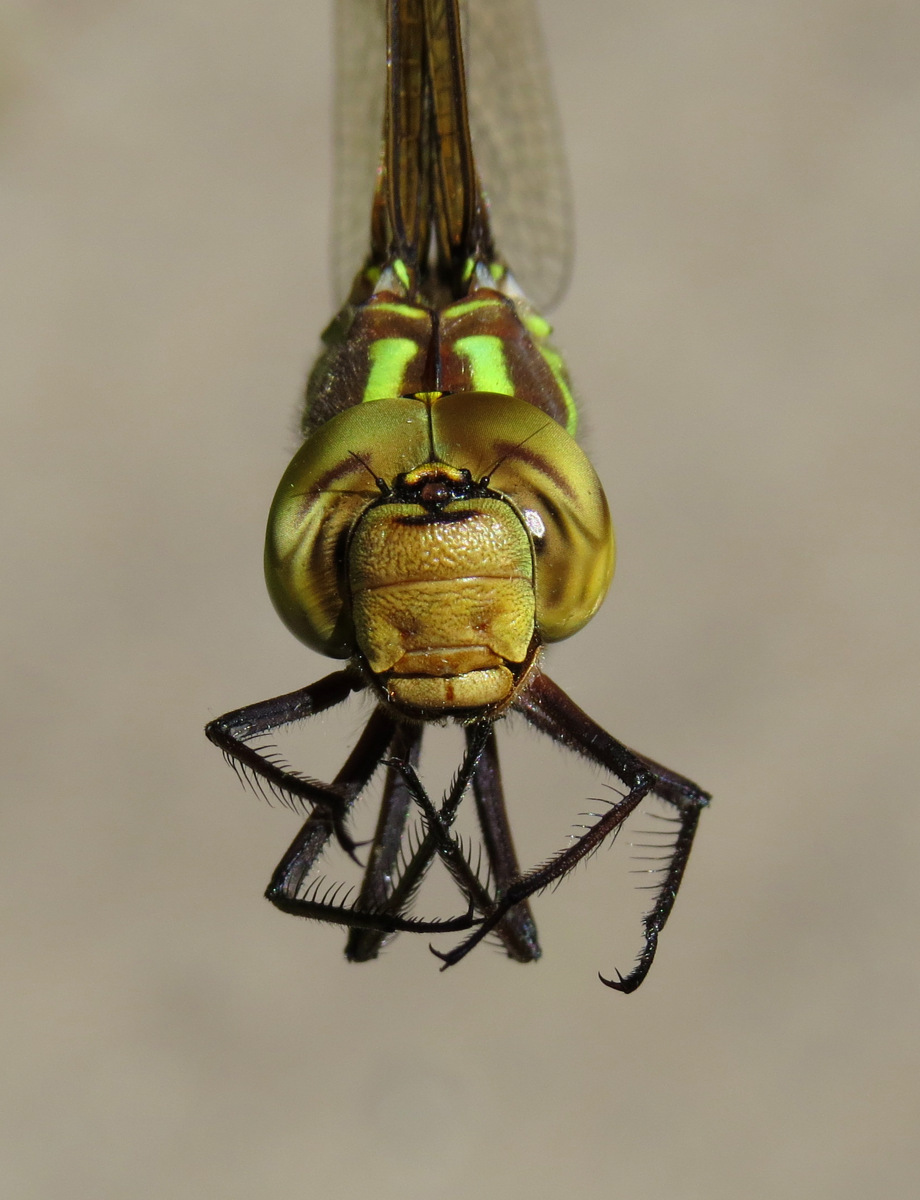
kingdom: Animalia
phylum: Arthropoda
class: Insecta
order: Odonata
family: Aeshnidae
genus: Aeshna
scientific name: Aeshna constricta
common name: Lance-tipped darner
